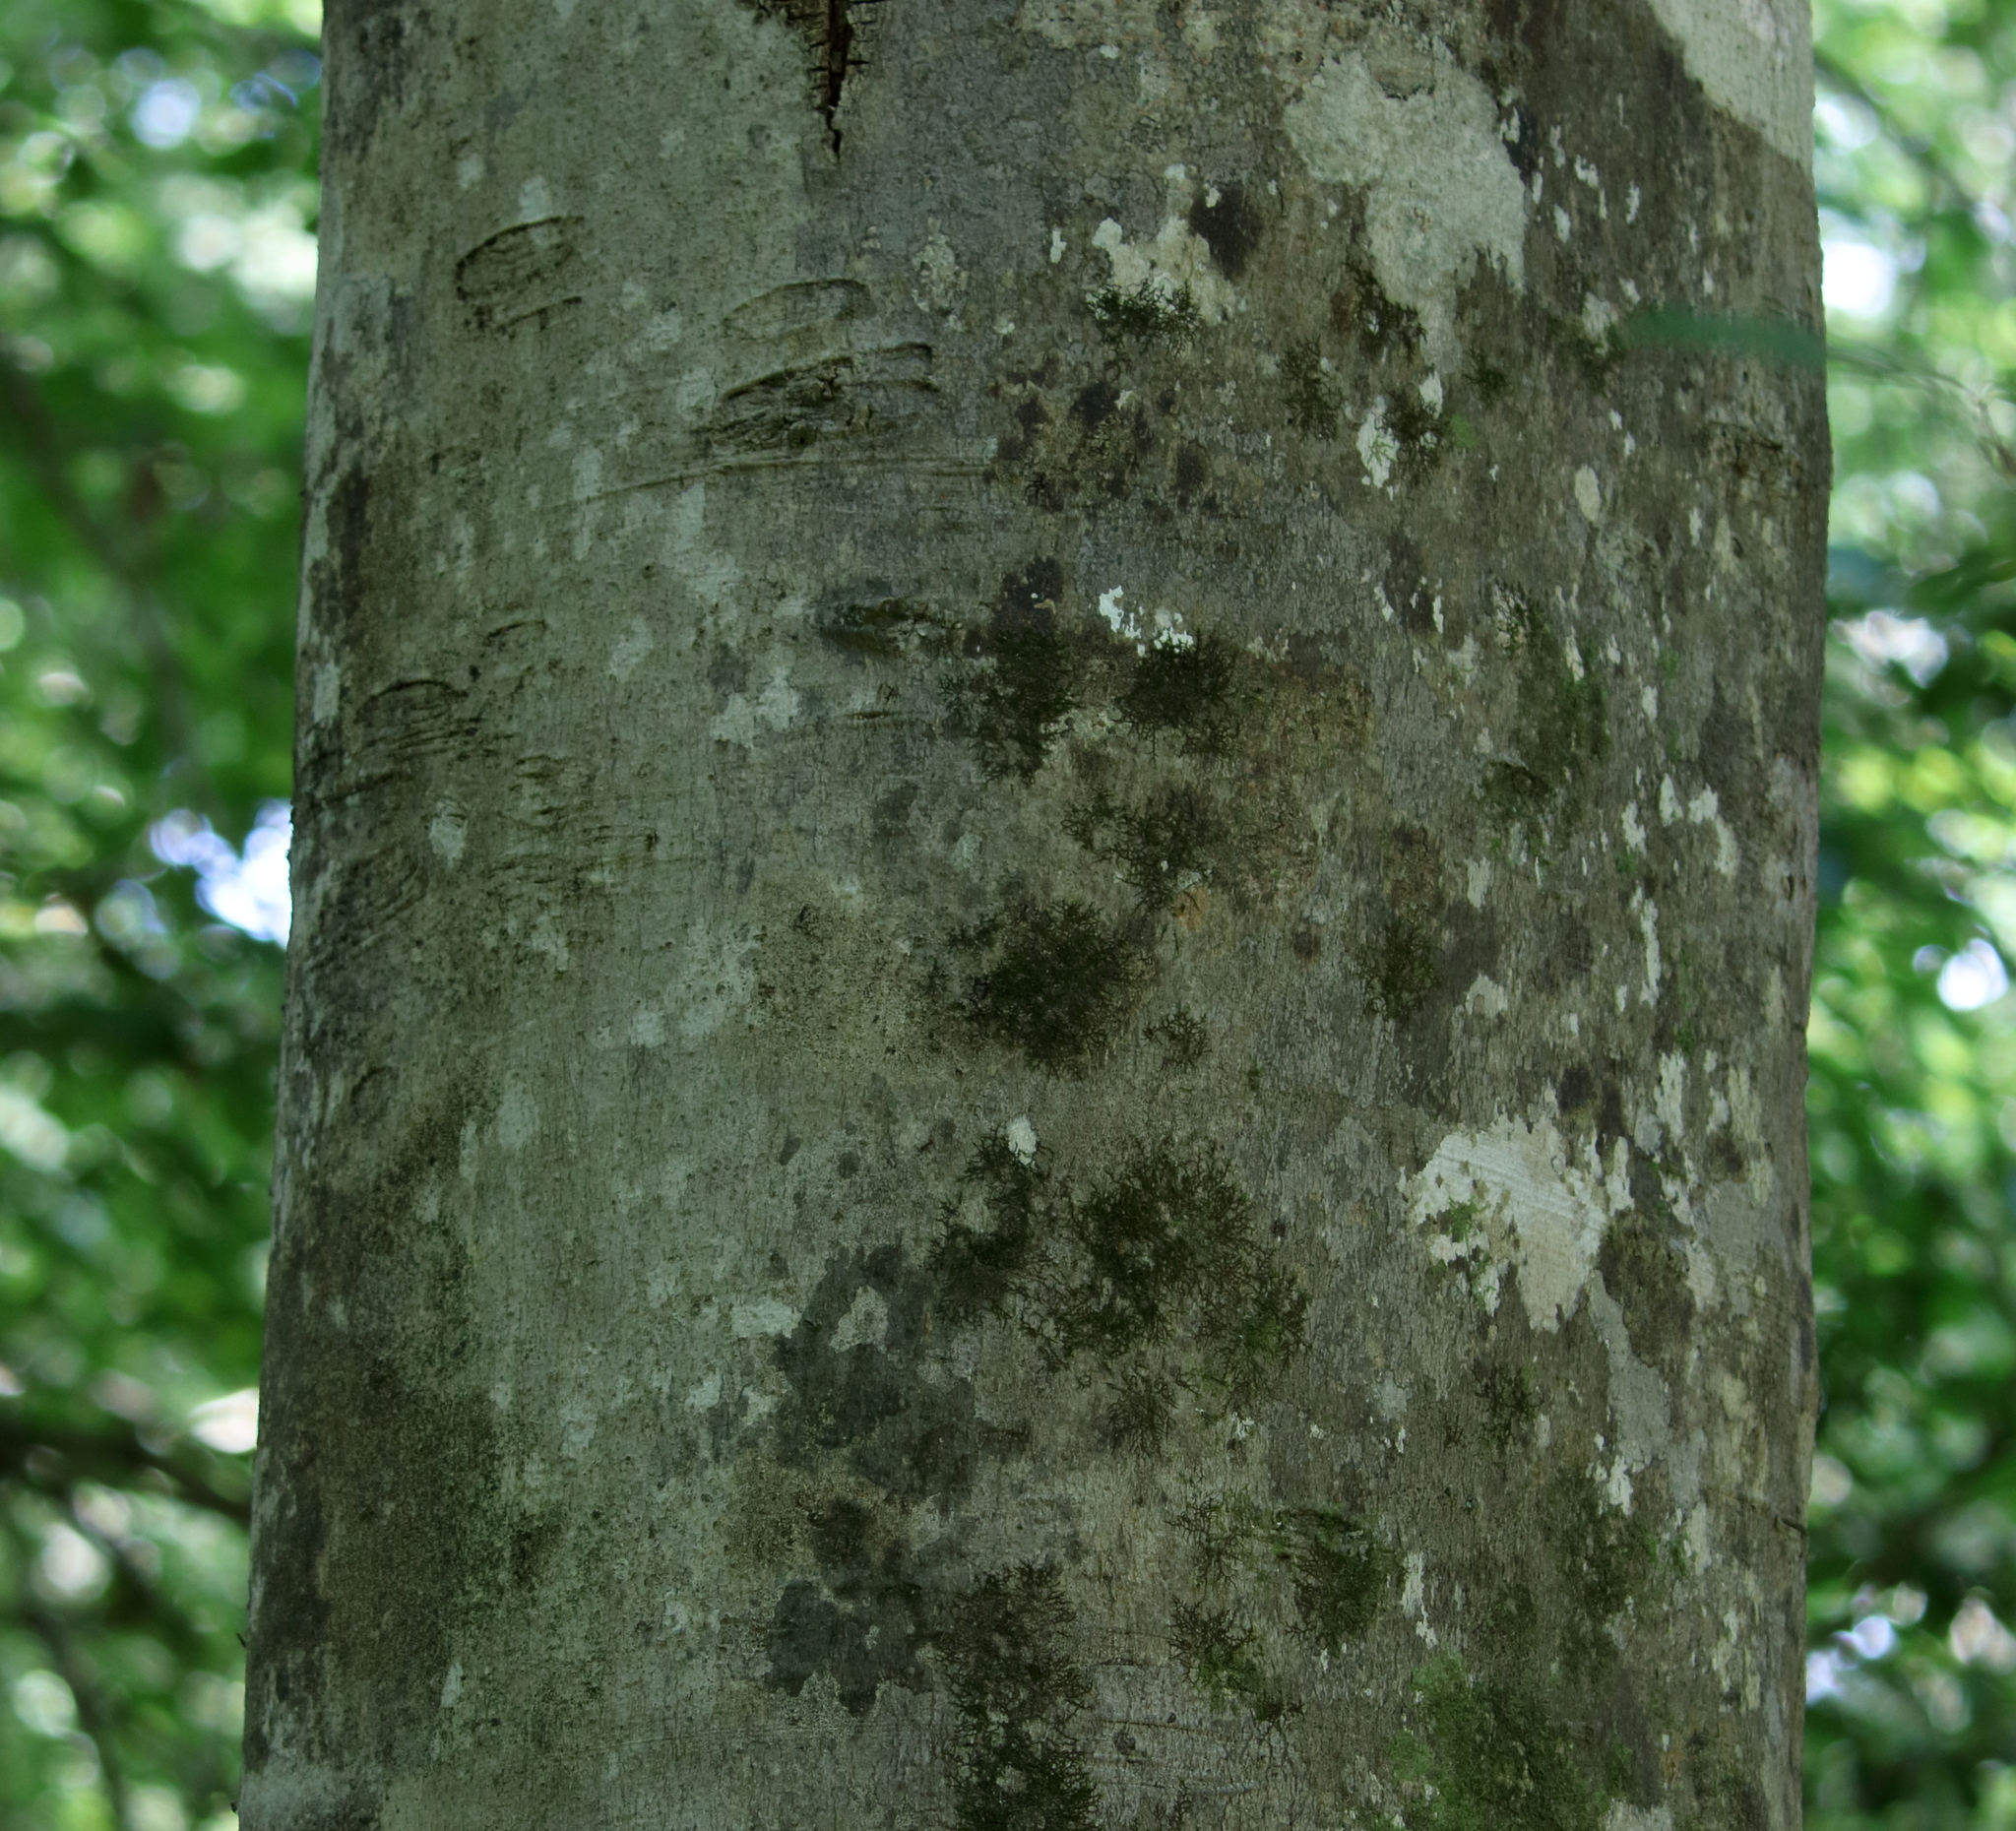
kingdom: Plantae
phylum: Tracheophyta
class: Magnoliopsida
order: Fagales
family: Fagaceae
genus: Fagus
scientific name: Fagus grandifolia
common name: American beech
